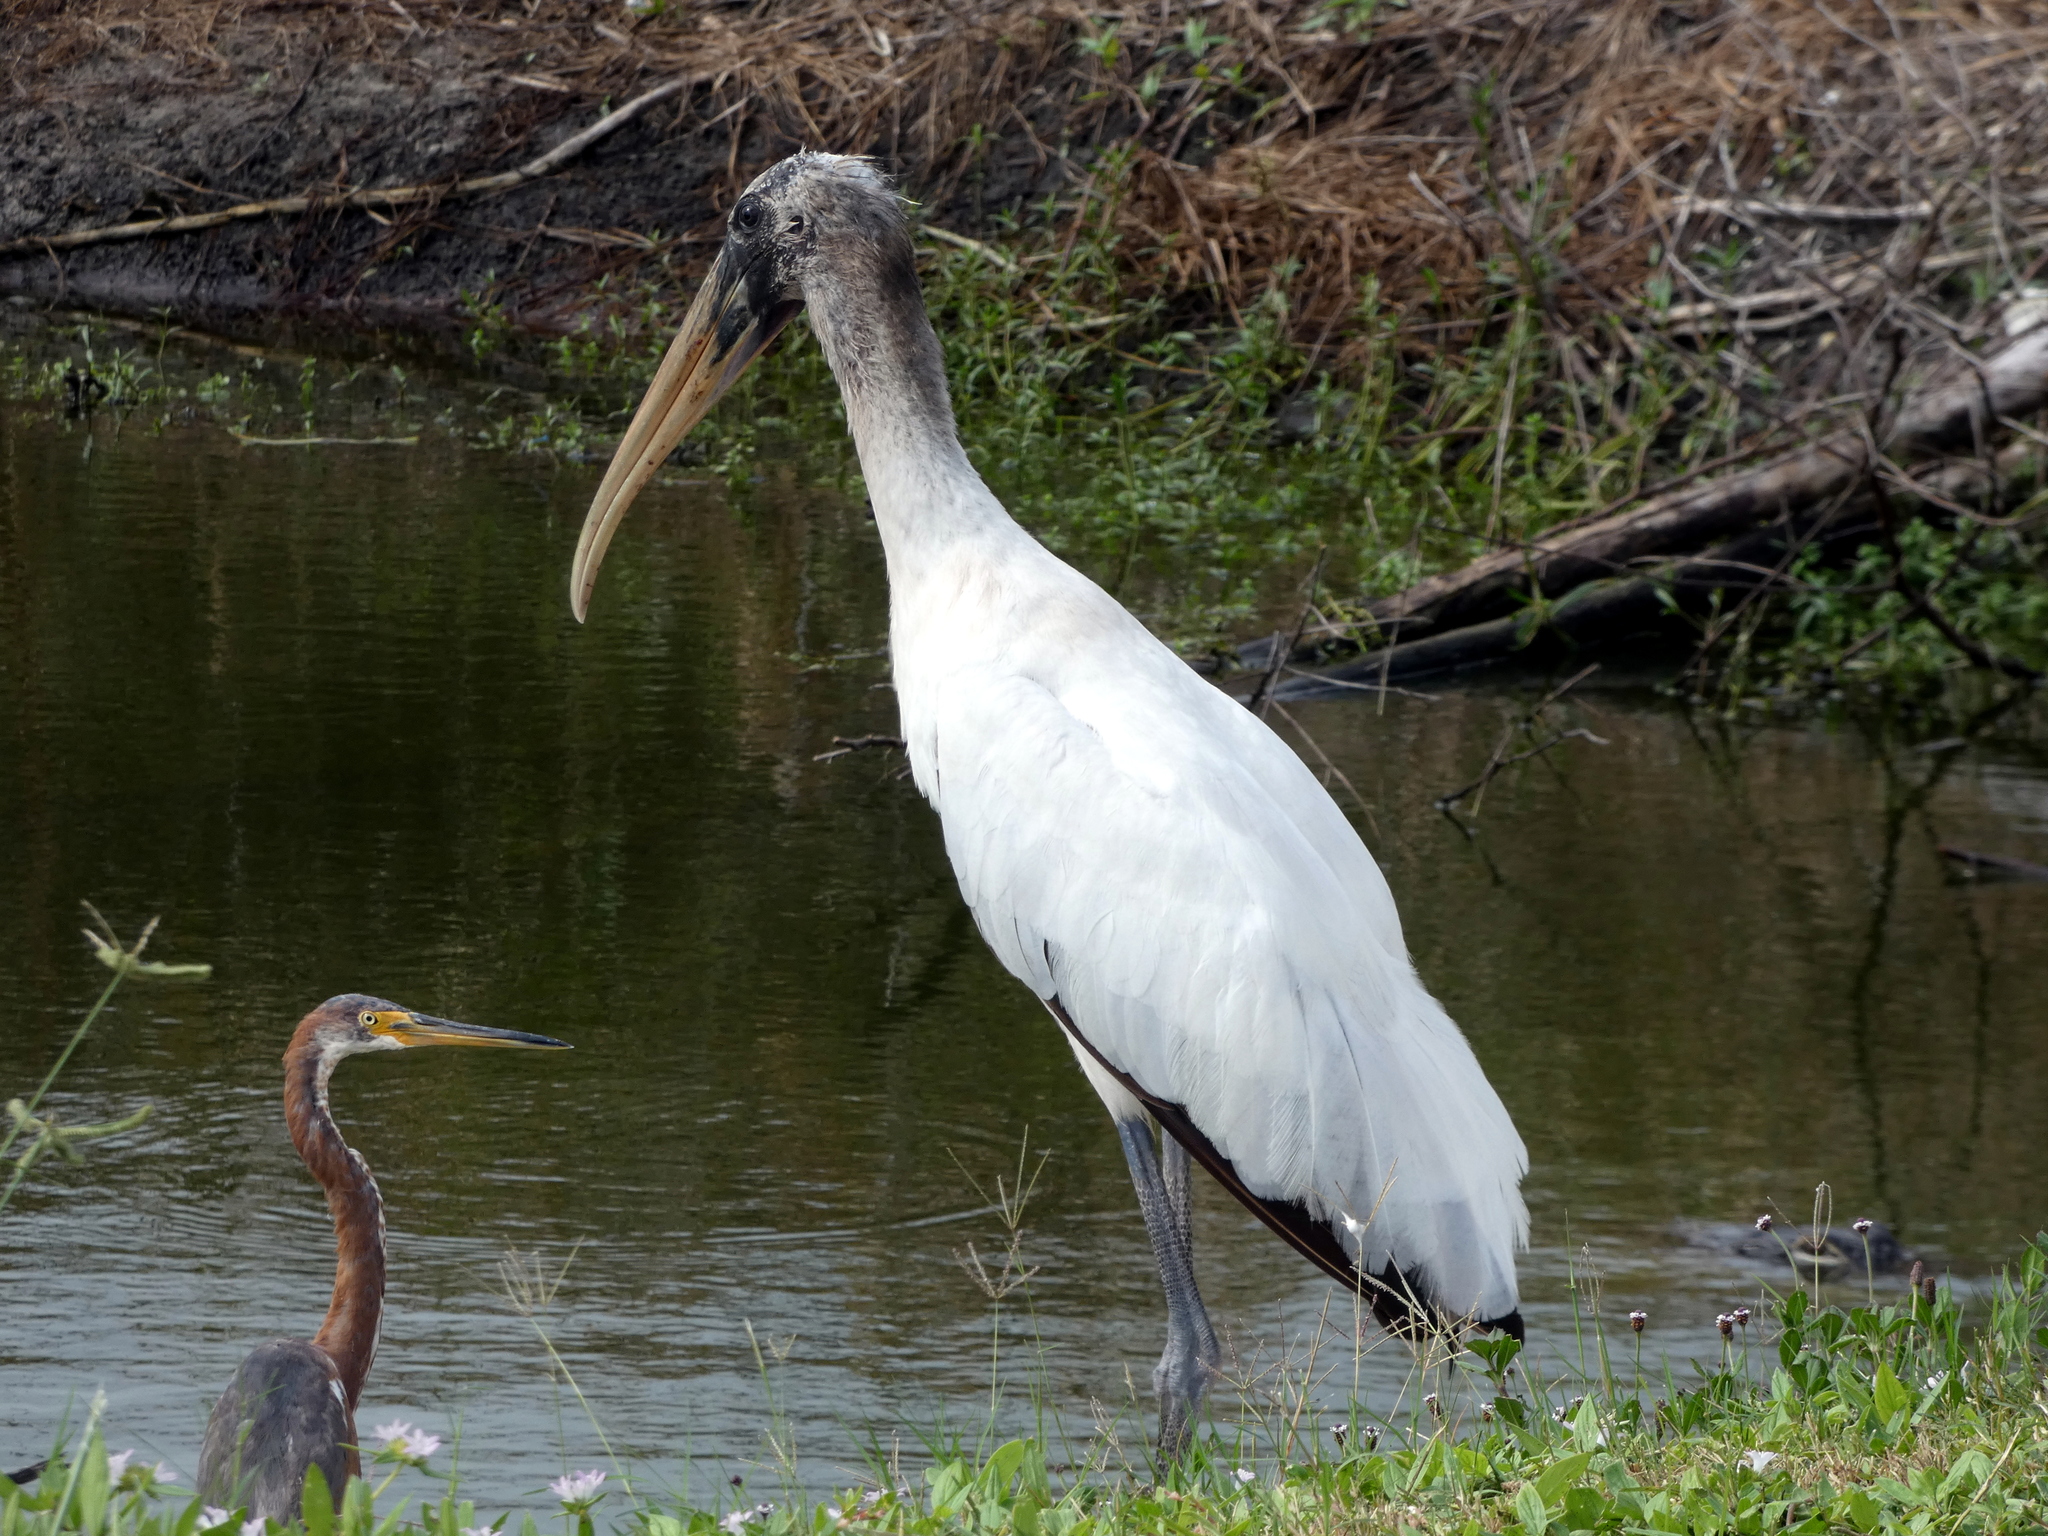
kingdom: Animalia
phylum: Chordata
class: Aves
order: Ciconiiformes
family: Ciconiidae
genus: Mycteria
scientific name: Mycteria americana
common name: Wood stork
